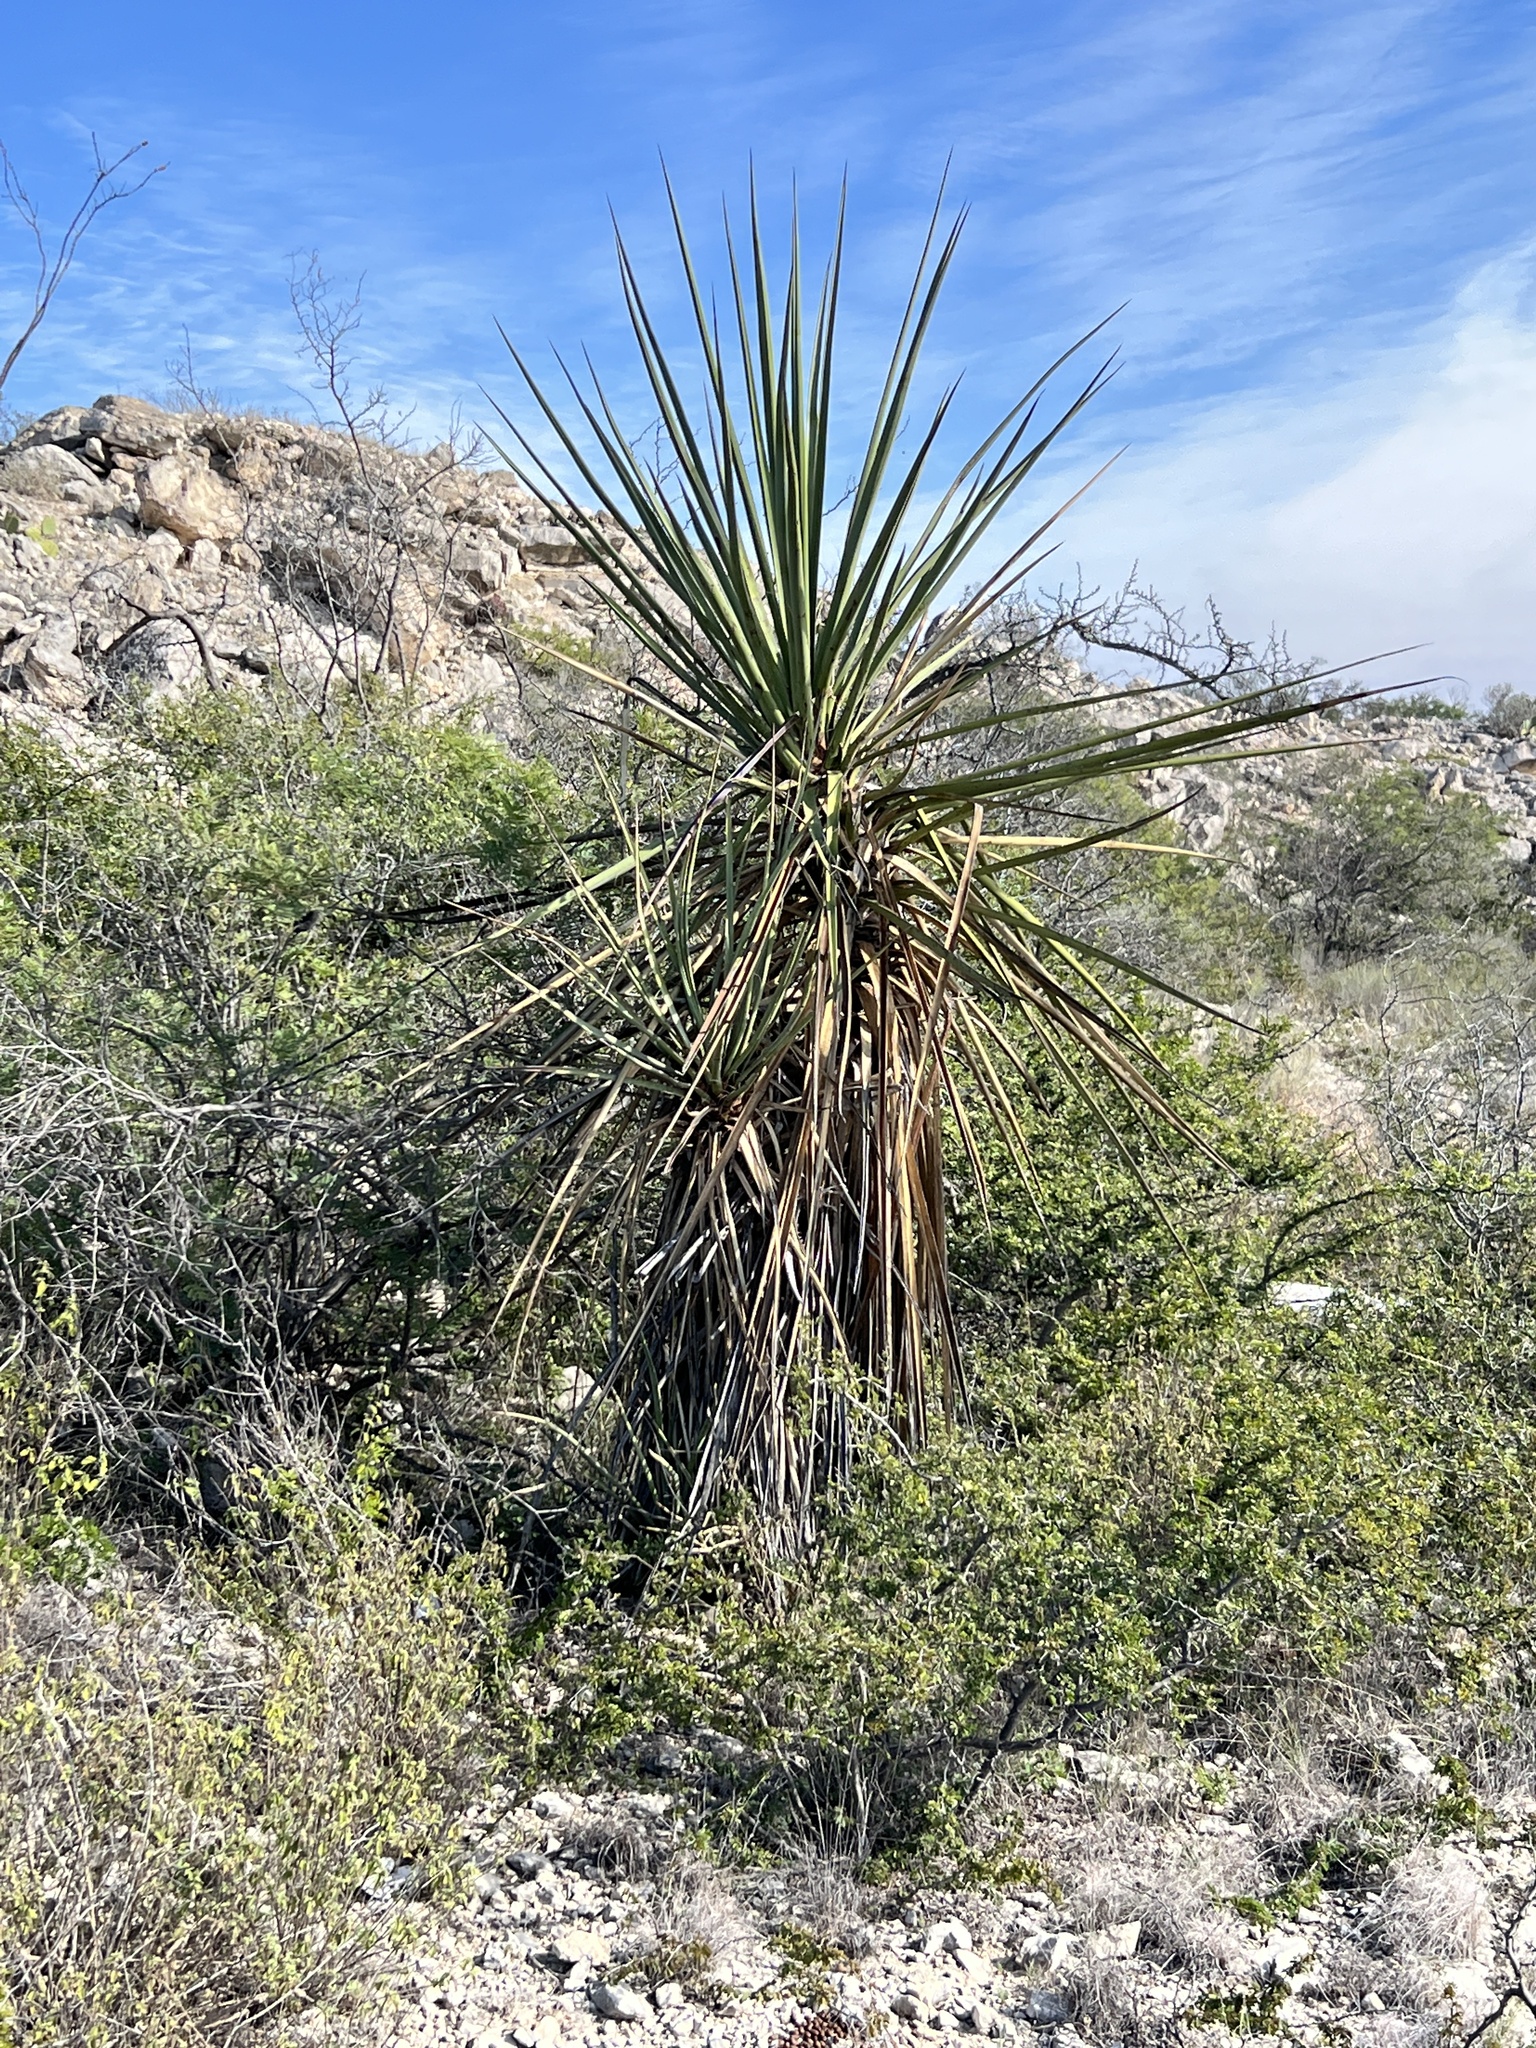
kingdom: Plantae
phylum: Tracheophyta
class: Liliopsida
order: Asparagales
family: Asparagaceae
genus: Yucca
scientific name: Yucca treculiana
